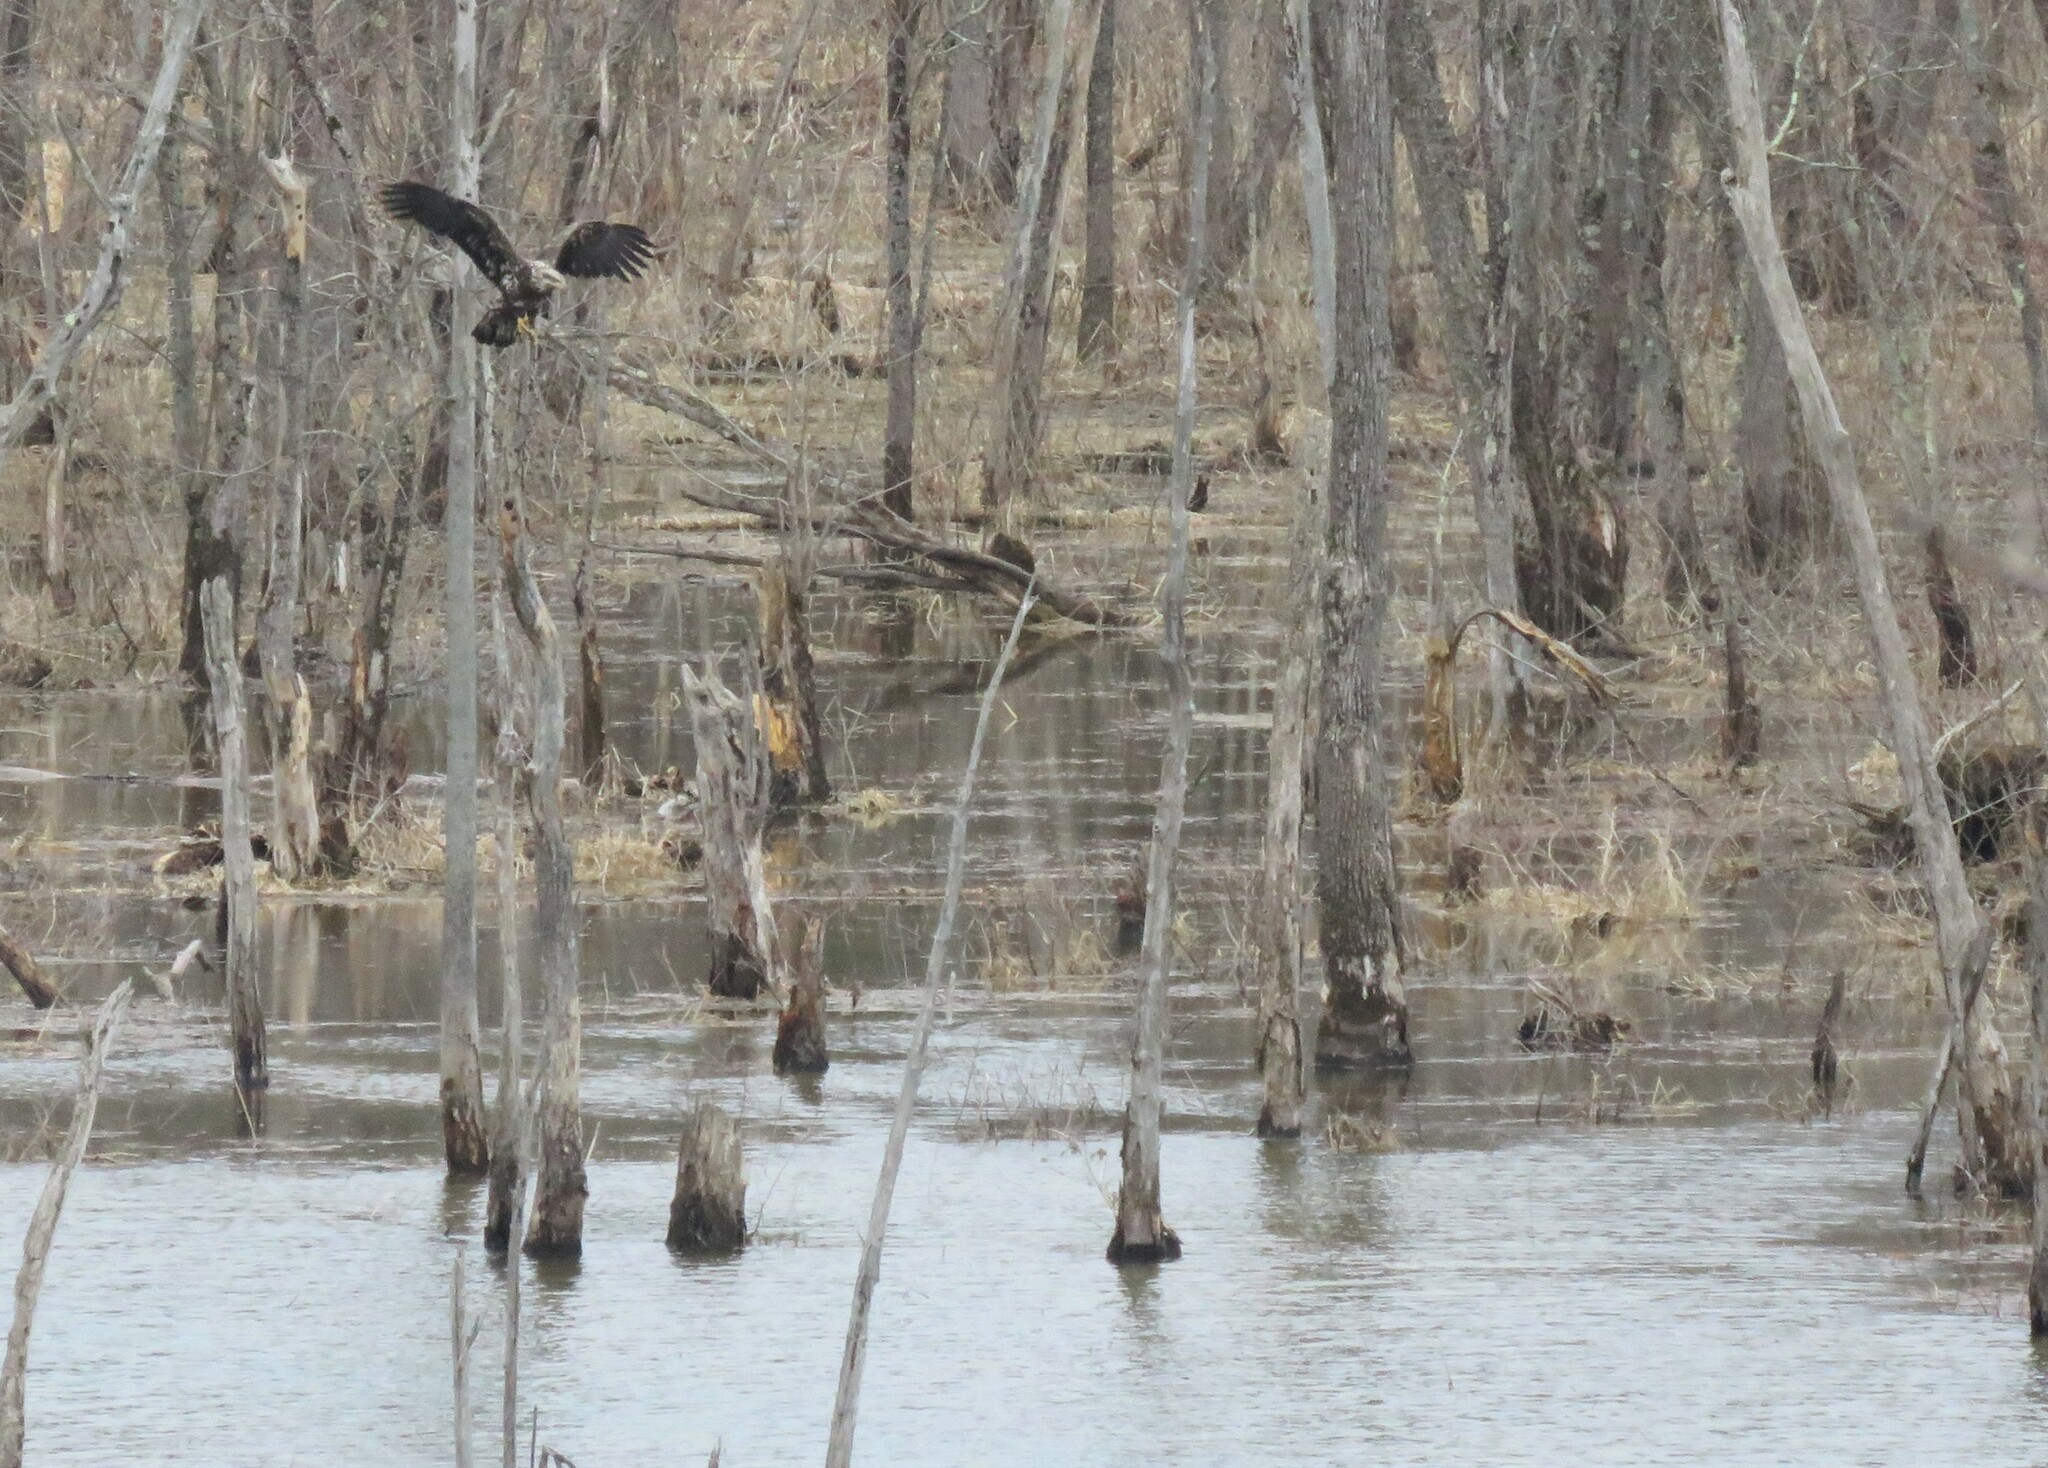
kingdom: Animalia
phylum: Chordata
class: Aves
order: Accipitriformes
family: Accipitridae
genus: Haliaeetus
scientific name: Haliaeetus leucocephalus
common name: Bald eagle
